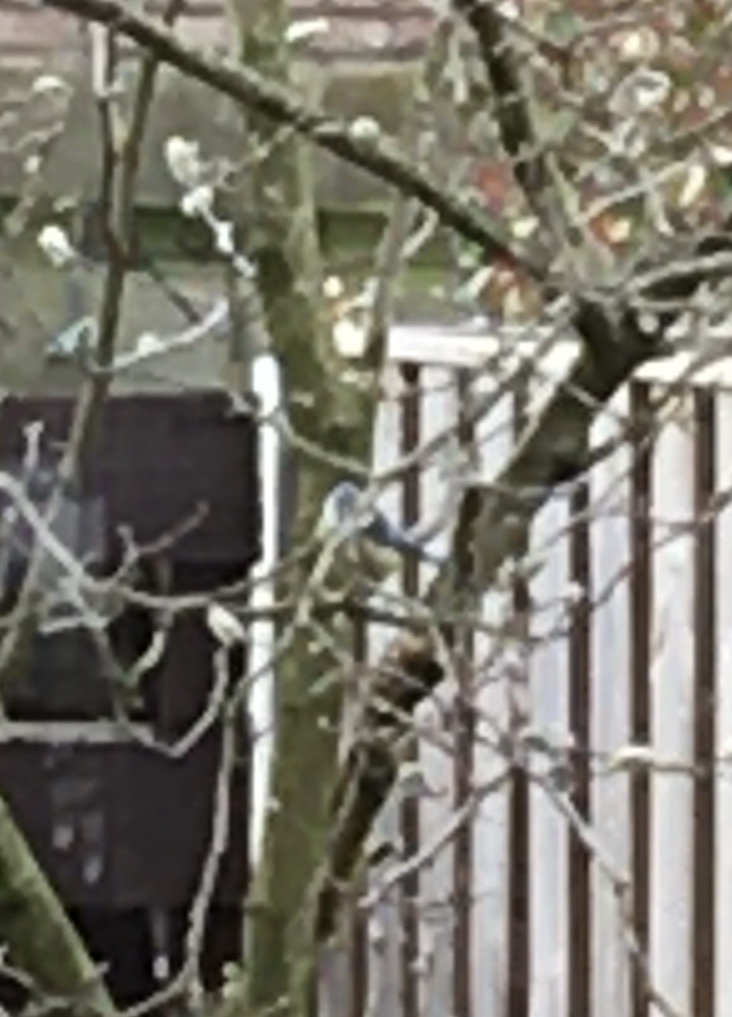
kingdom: Animalia
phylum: Chordata
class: Aves
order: Passeriformes
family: Paridae
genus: Cyanistes
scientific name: Cyanistes caeruleus
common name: Eurasian blue tit
